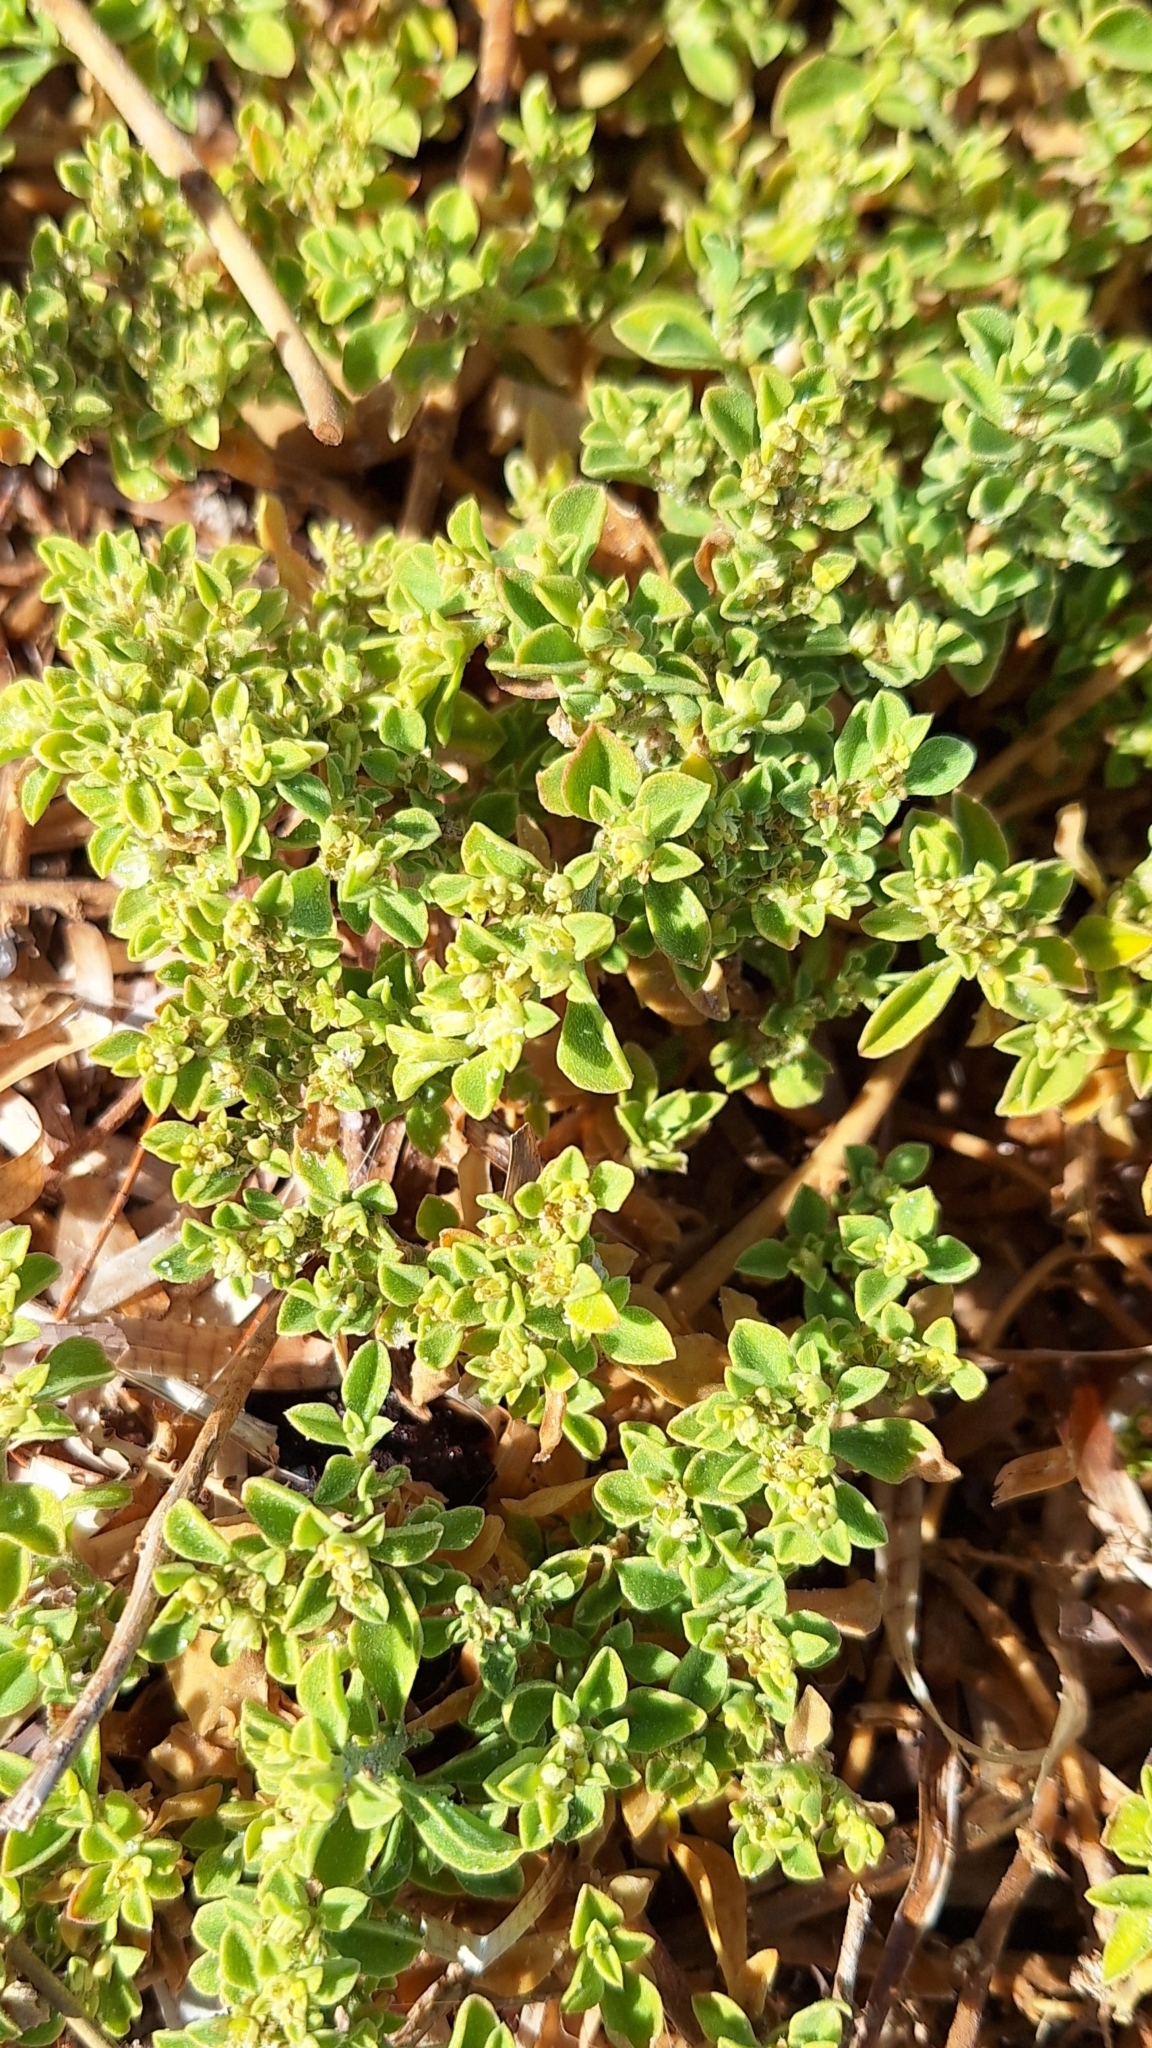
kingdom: Plantae
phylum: Tracheophyta
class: Magnoliopsida
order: Caryophyllales
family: Aizoaceae
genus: Aizoon
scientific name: Aizoon pubescens
